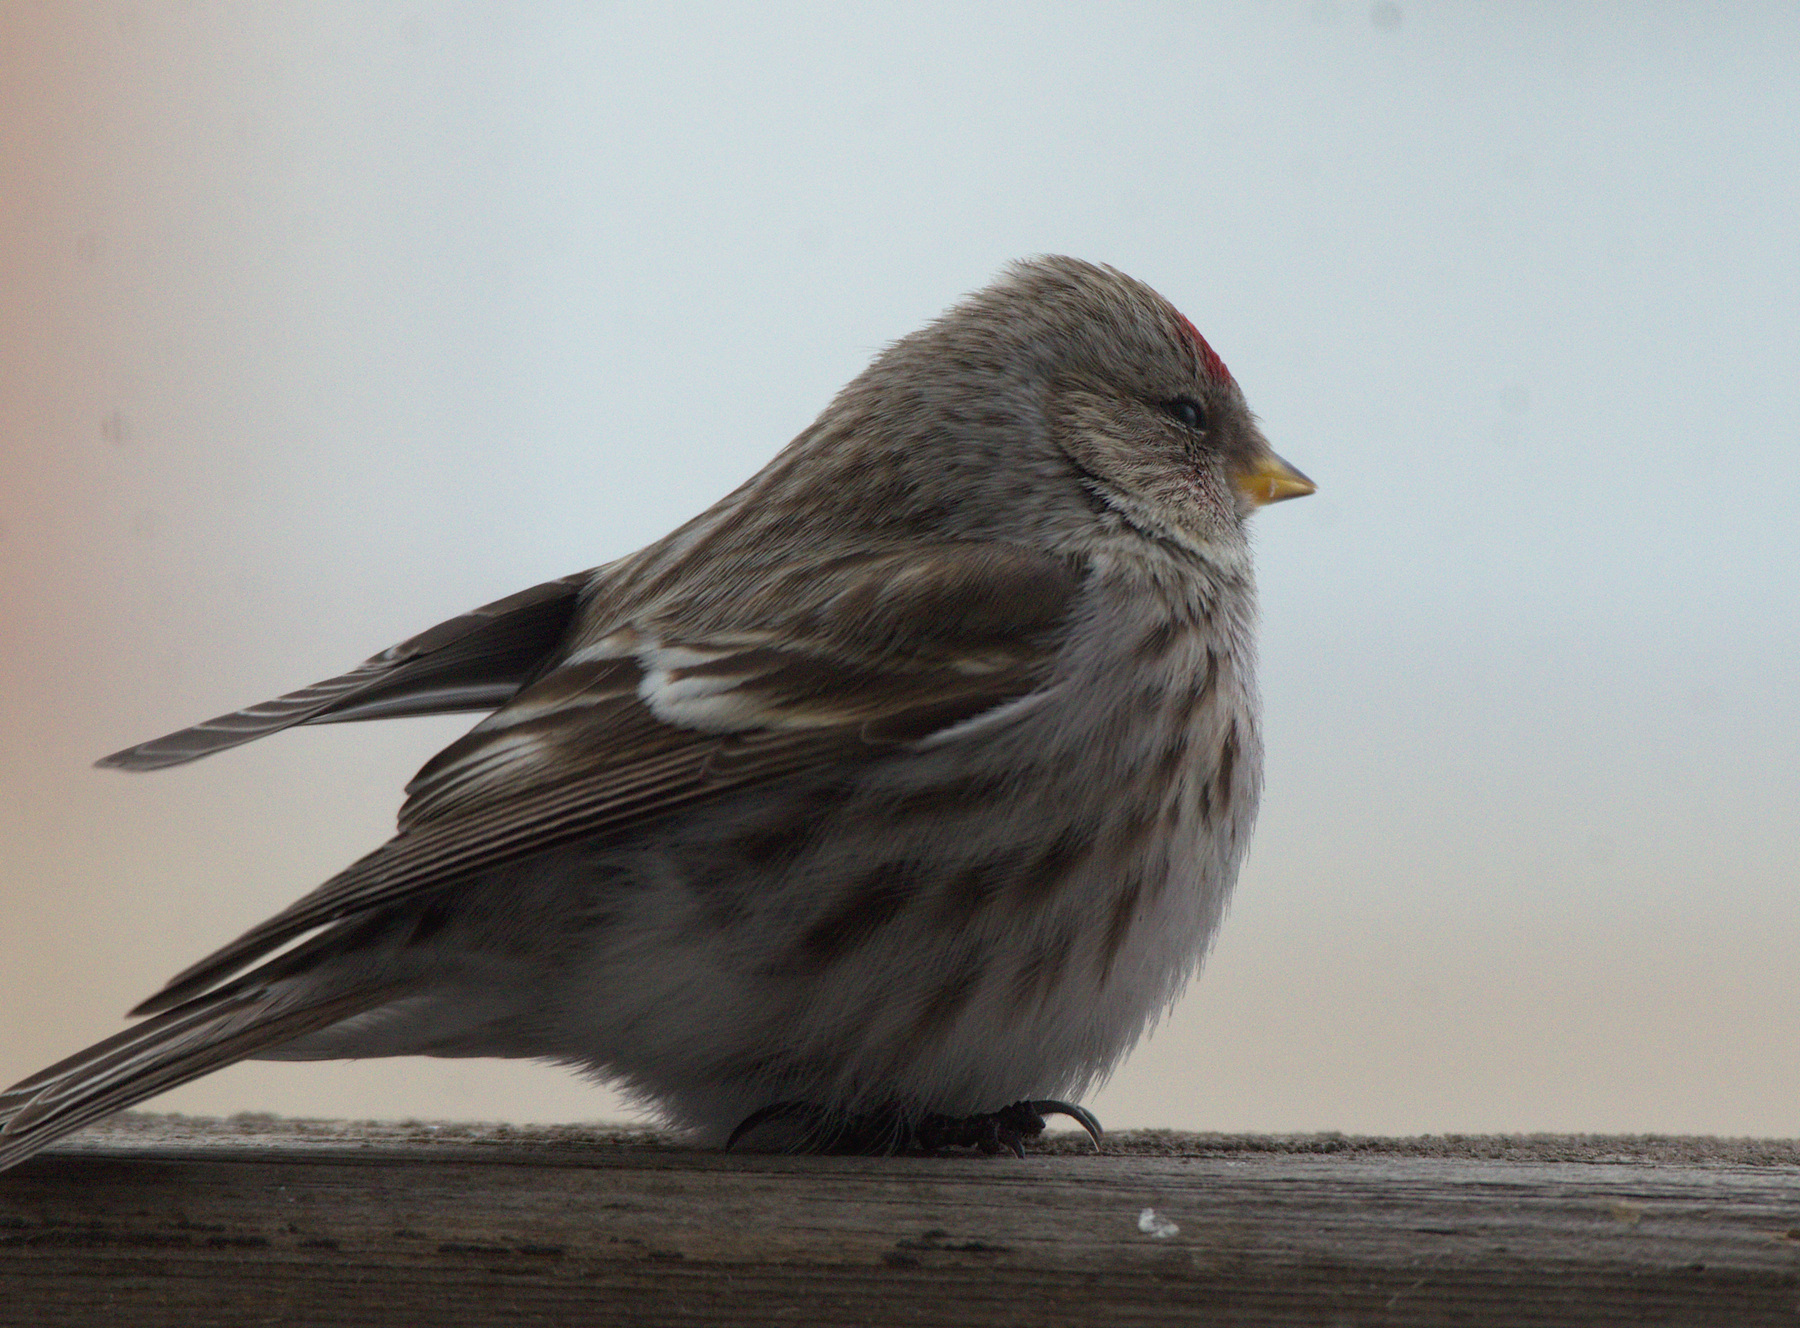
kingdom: Animalia
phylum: Chordata
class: Aves
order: Passeriformes
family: Fringillidae
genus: Acanthis
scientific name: Acanthis flammea
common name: Common redpoll
